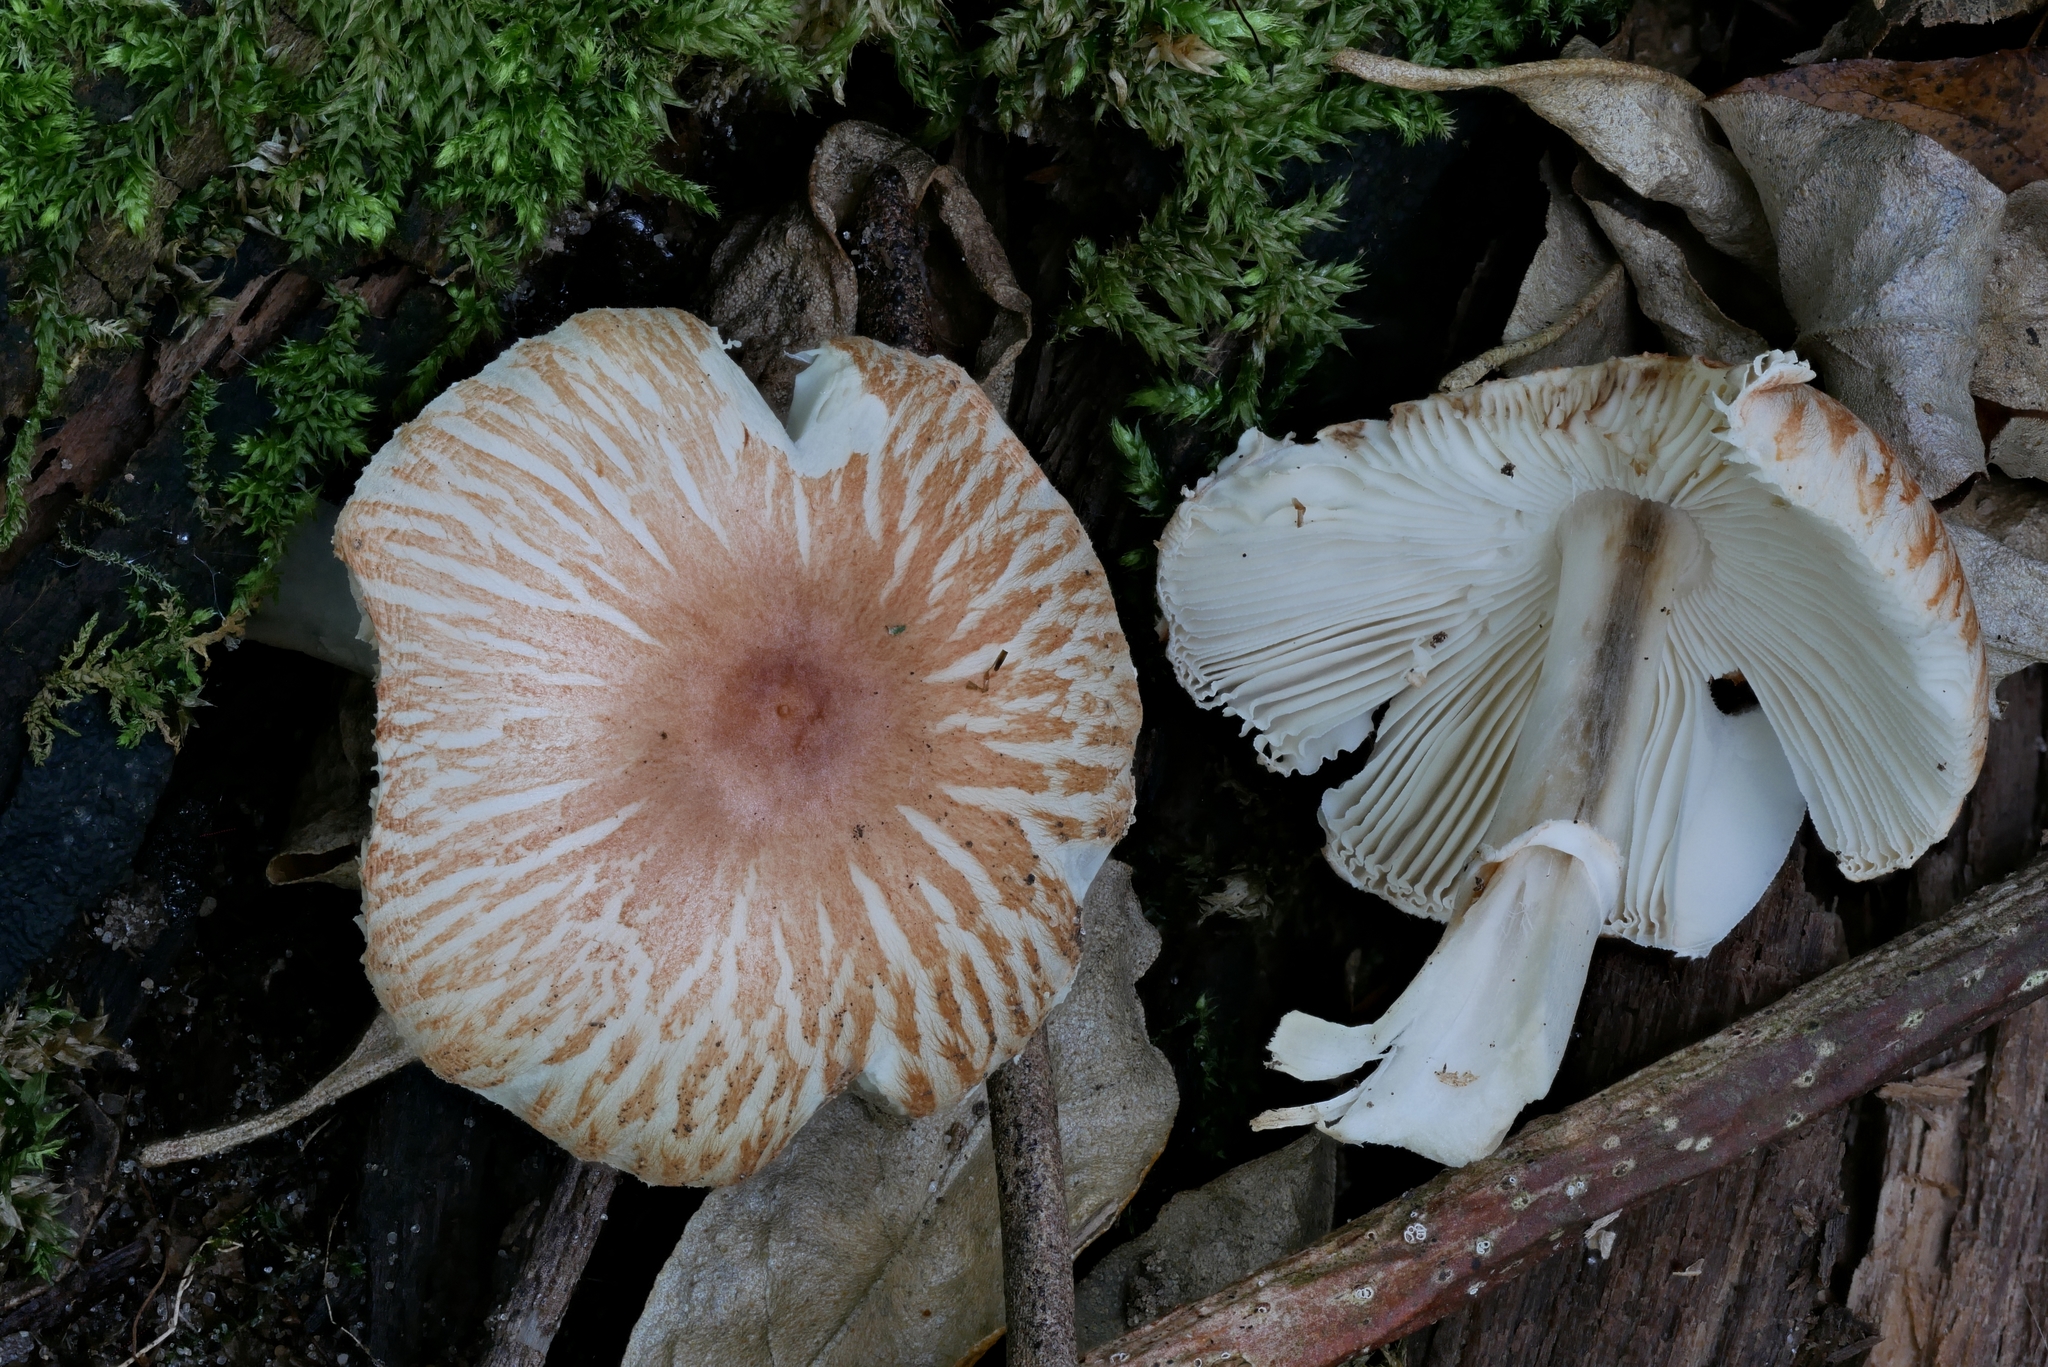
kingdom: Fungi
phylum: Basidiomycota
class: Agaricomycetes
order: Agaricales
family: Agaricaceae
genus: Leucoagaricus
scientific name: Leucoagaricus rubrotinctus
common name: Ruby dapperling
